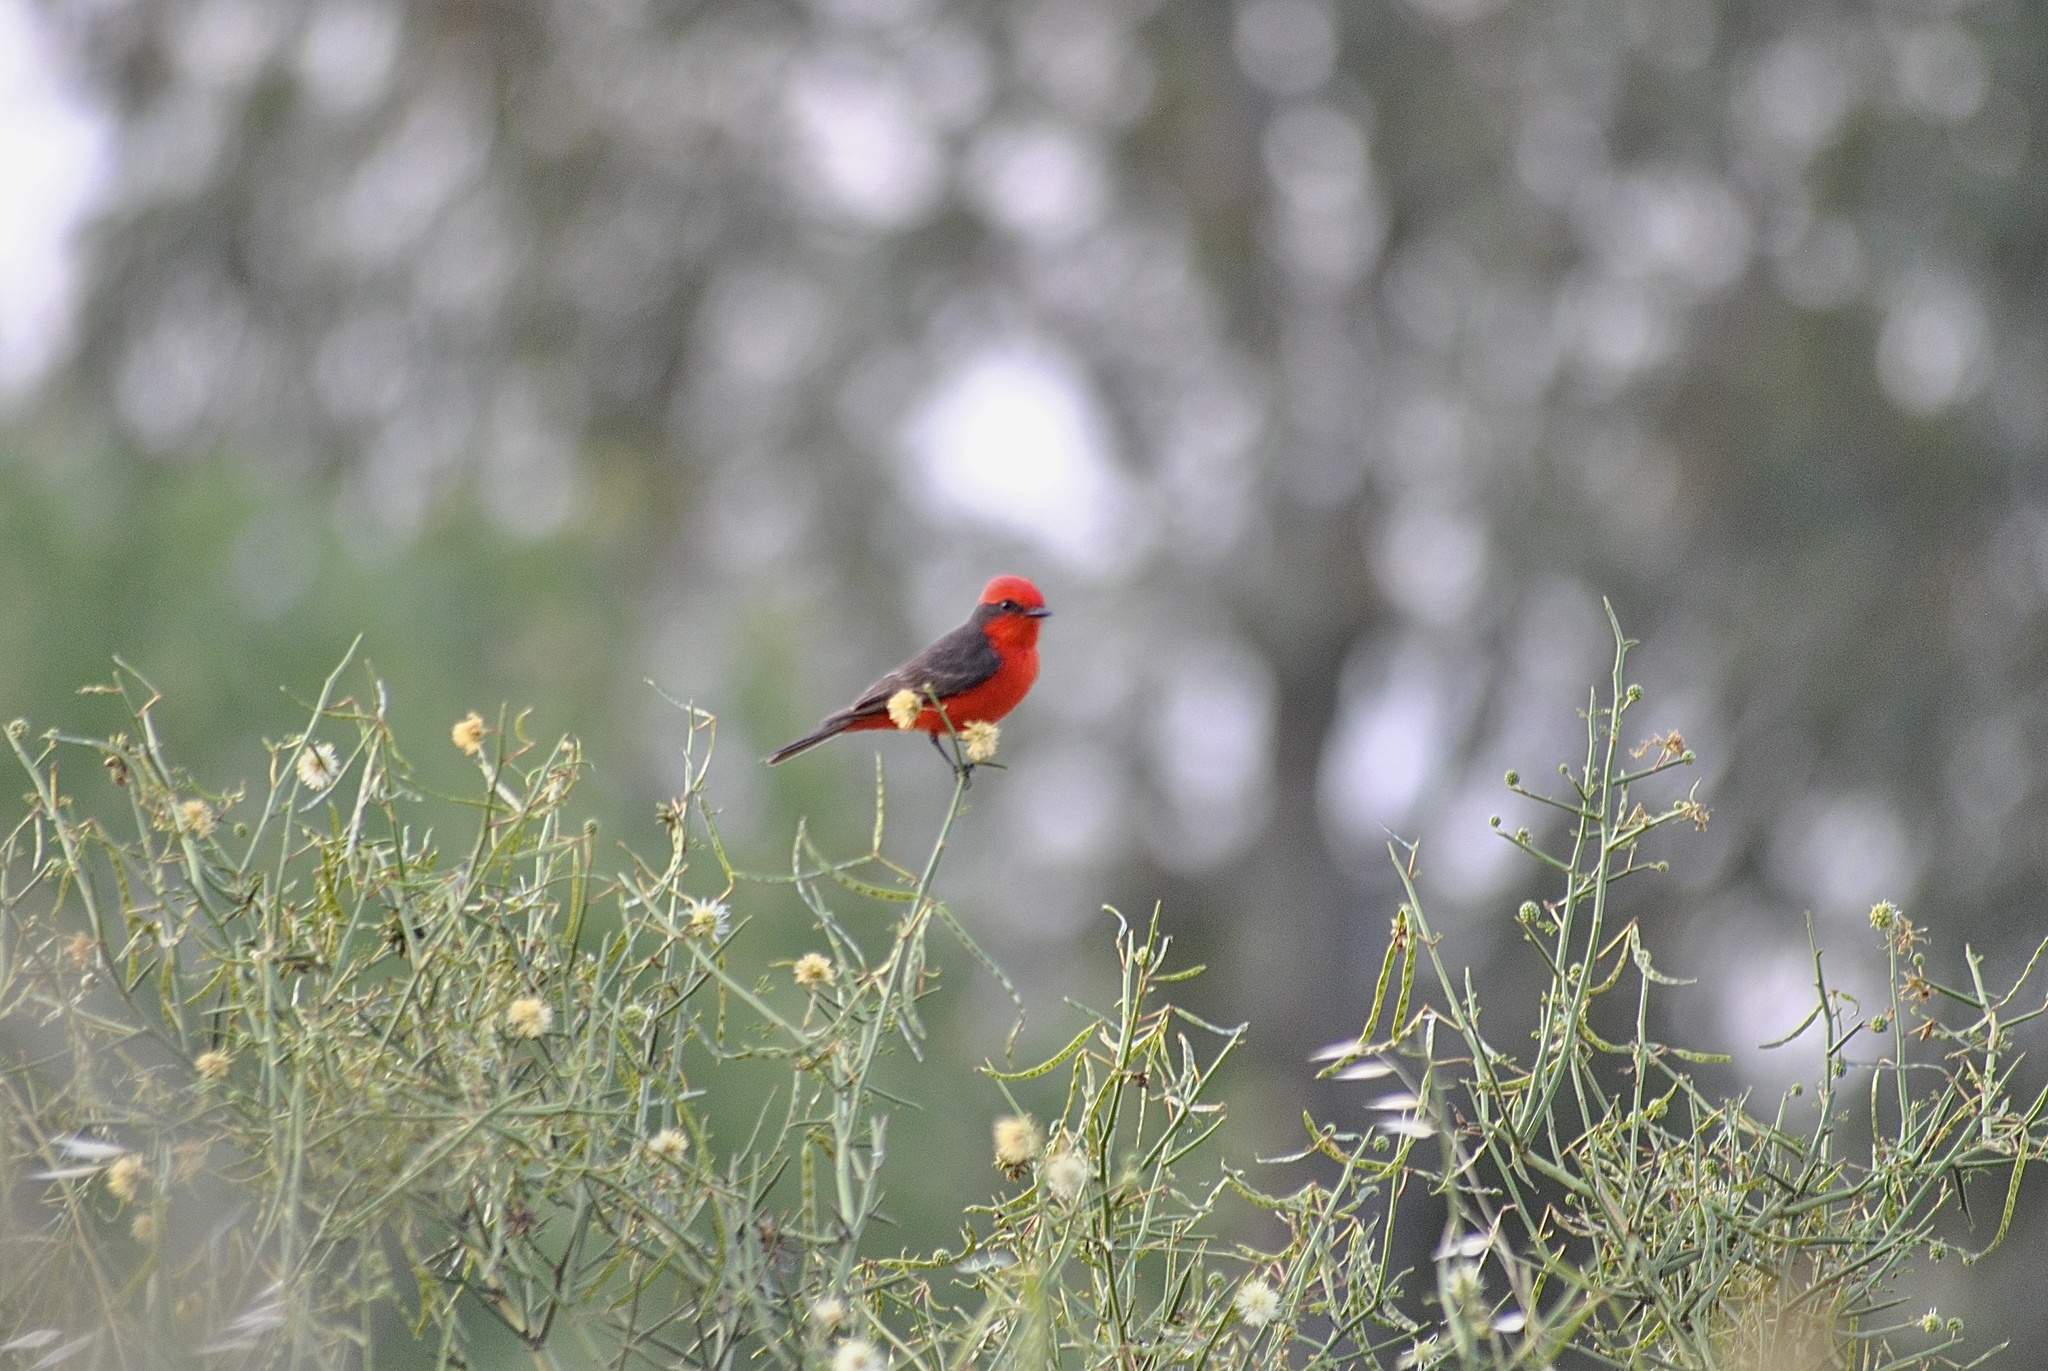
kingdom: Animalia
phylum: Chordata
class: Aves
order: Passeriformes
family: Tyrannidae
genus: Pyrocephalus
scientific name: Pyrocephalus rubinus
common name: Vermilion flycatcher
